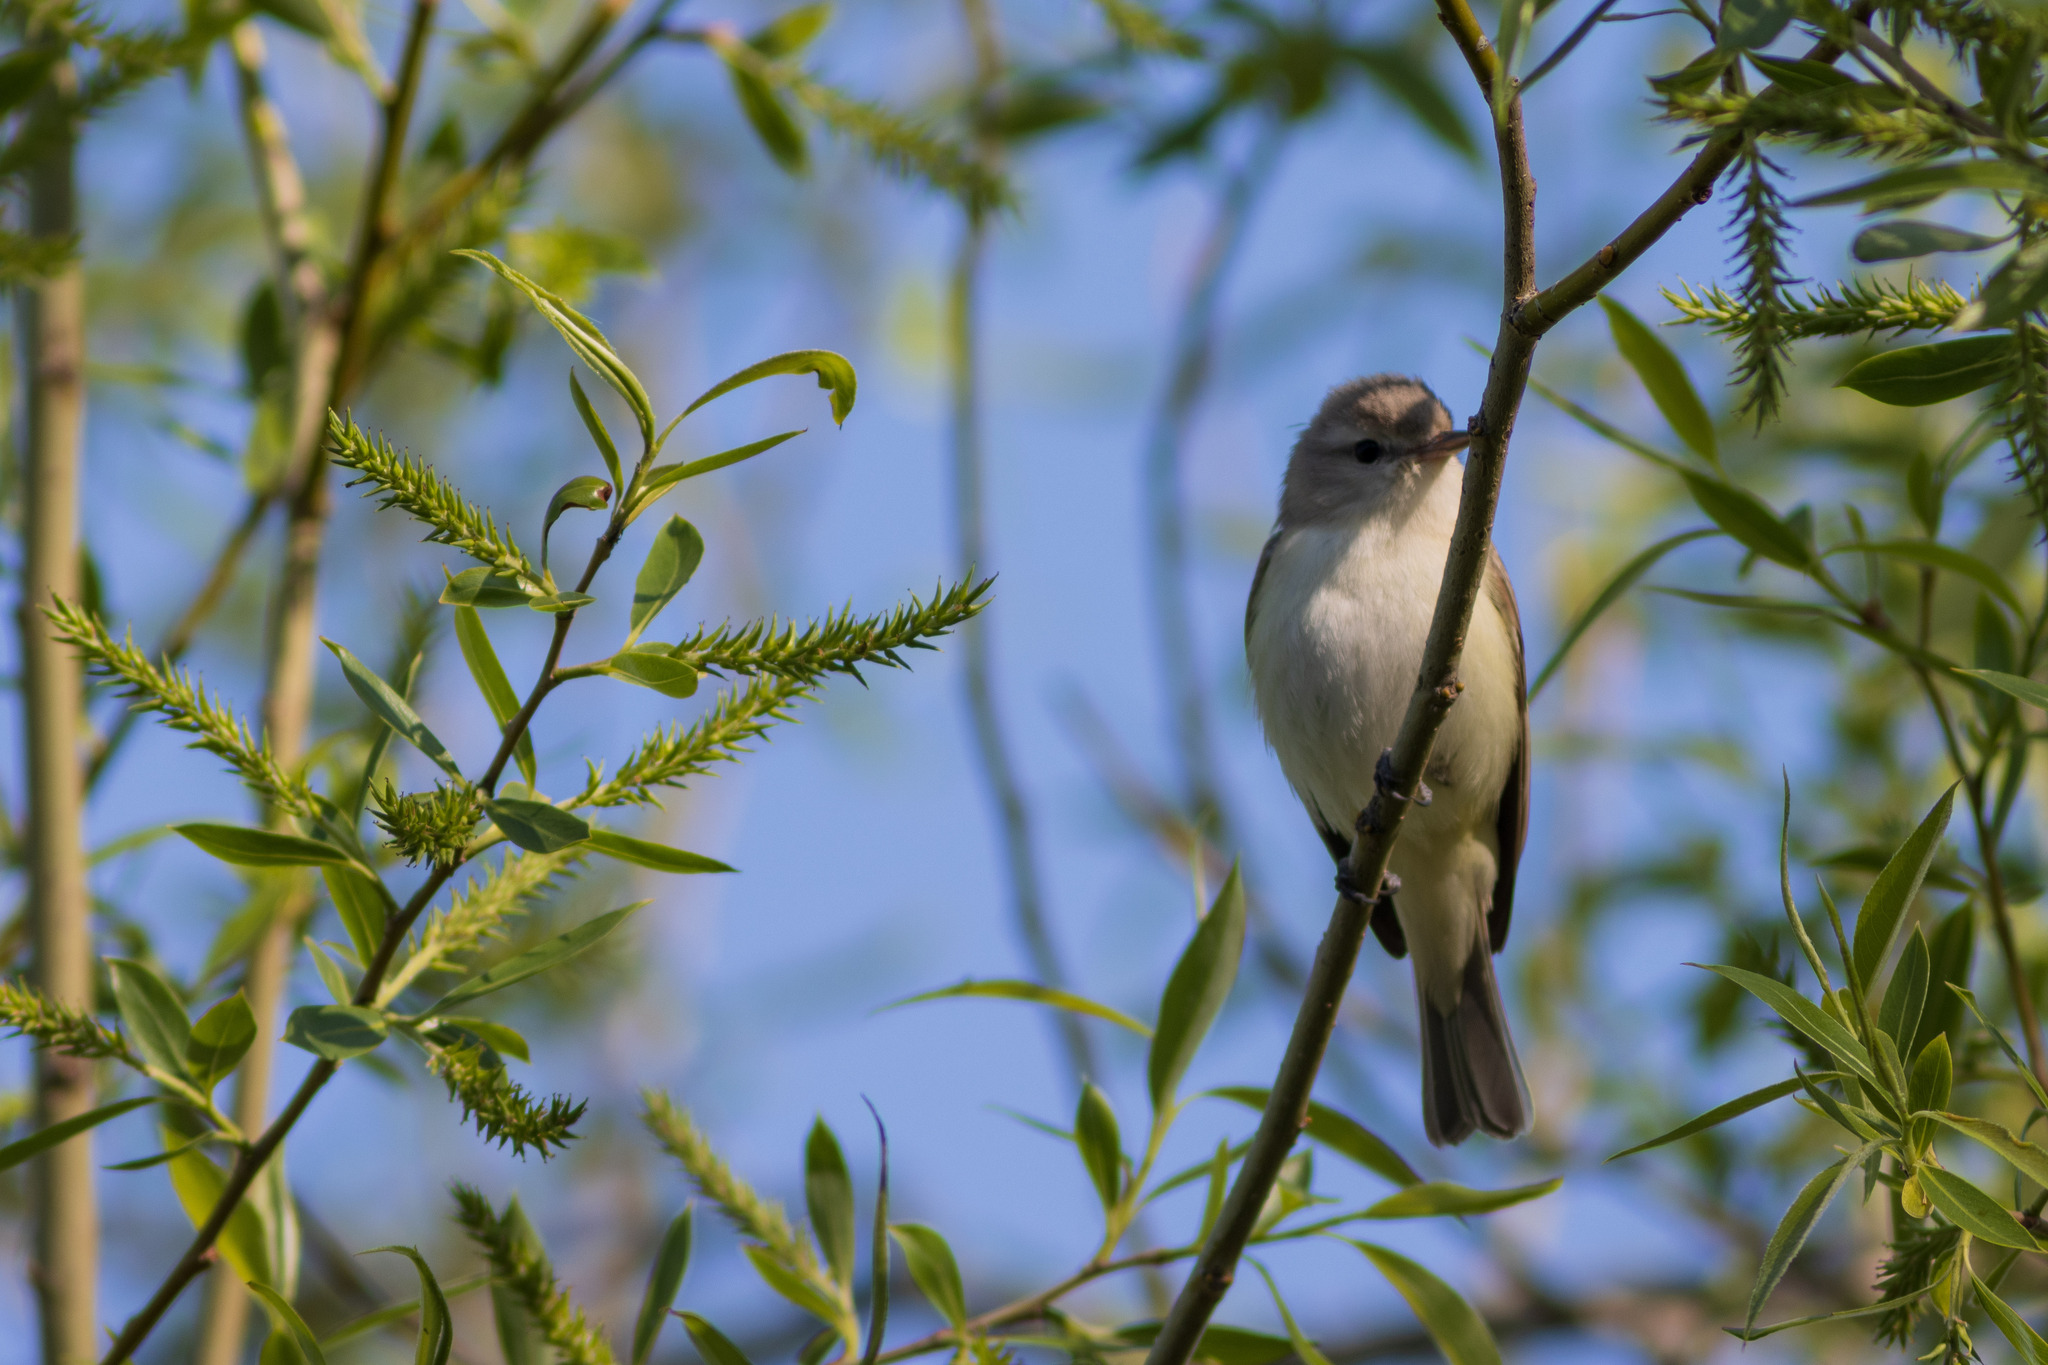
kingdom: Animalia
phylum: Chordata
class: Aves
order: Passeriformes
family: Vireonidae
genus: Vireo
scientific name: Vireo gilvus
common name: Warbling vireo
